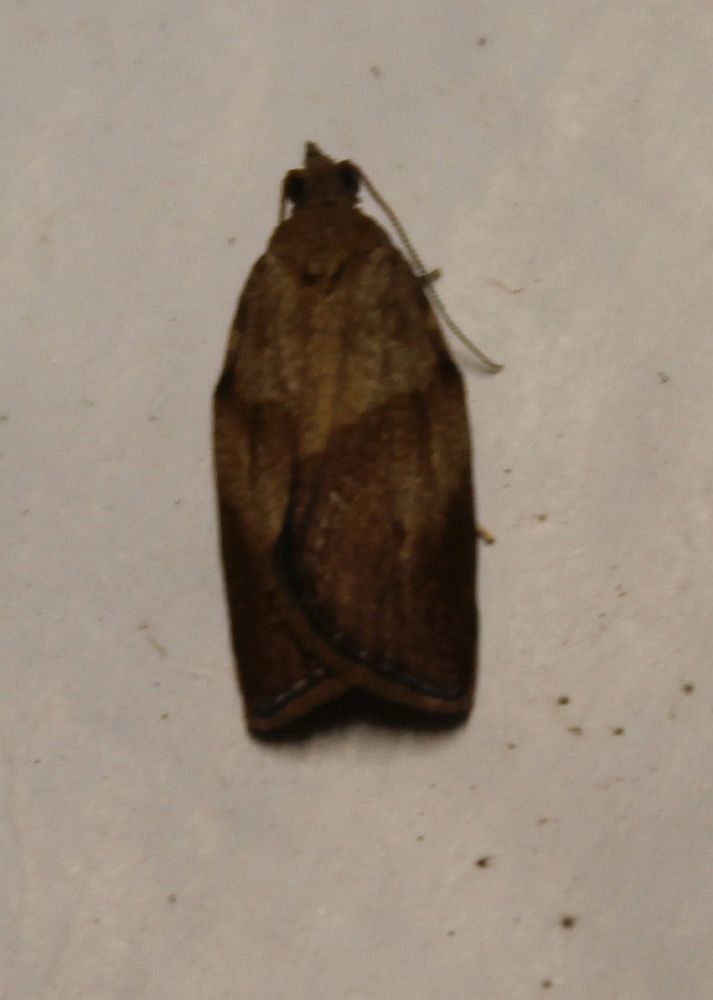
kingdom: Animalia
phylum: Arthropoda
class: Insecta
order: Lepidoptera
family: Tortricidae
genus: Epiphyas
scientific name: Epiphyas postvittana
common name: Light brown apple moth
